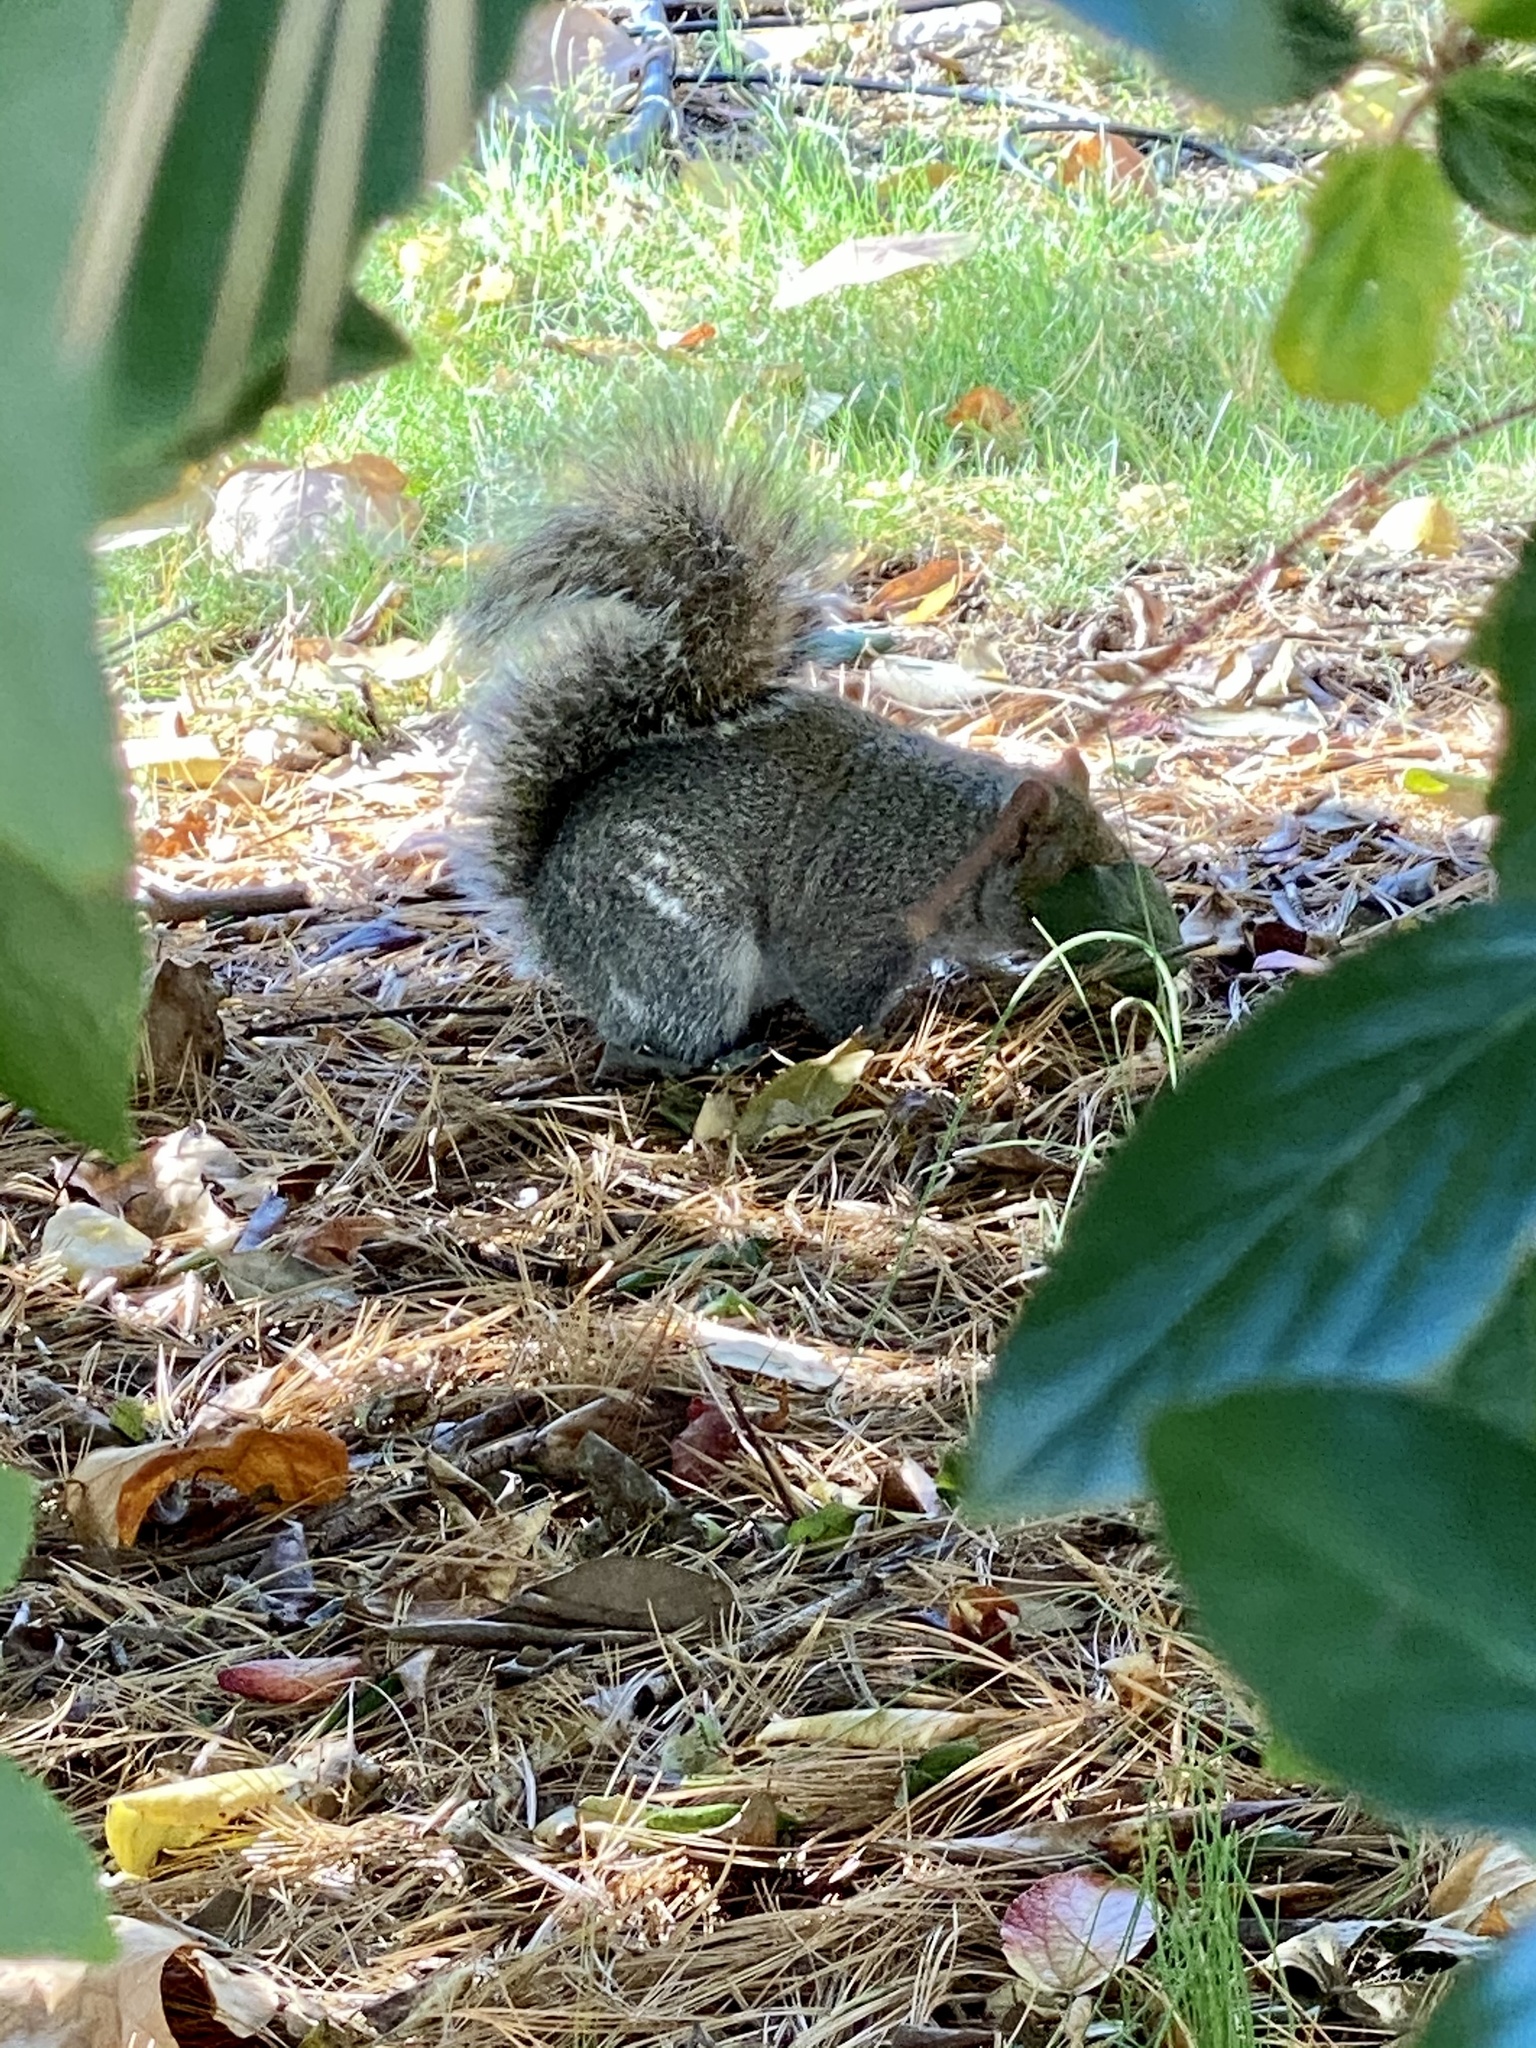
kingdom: Animalia
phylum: Chordata
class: Mammalia
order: Rodentia
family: Sciuridae
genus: Sciurus
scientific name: Sciurus carolinensis
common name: Eastern gray squirrel
